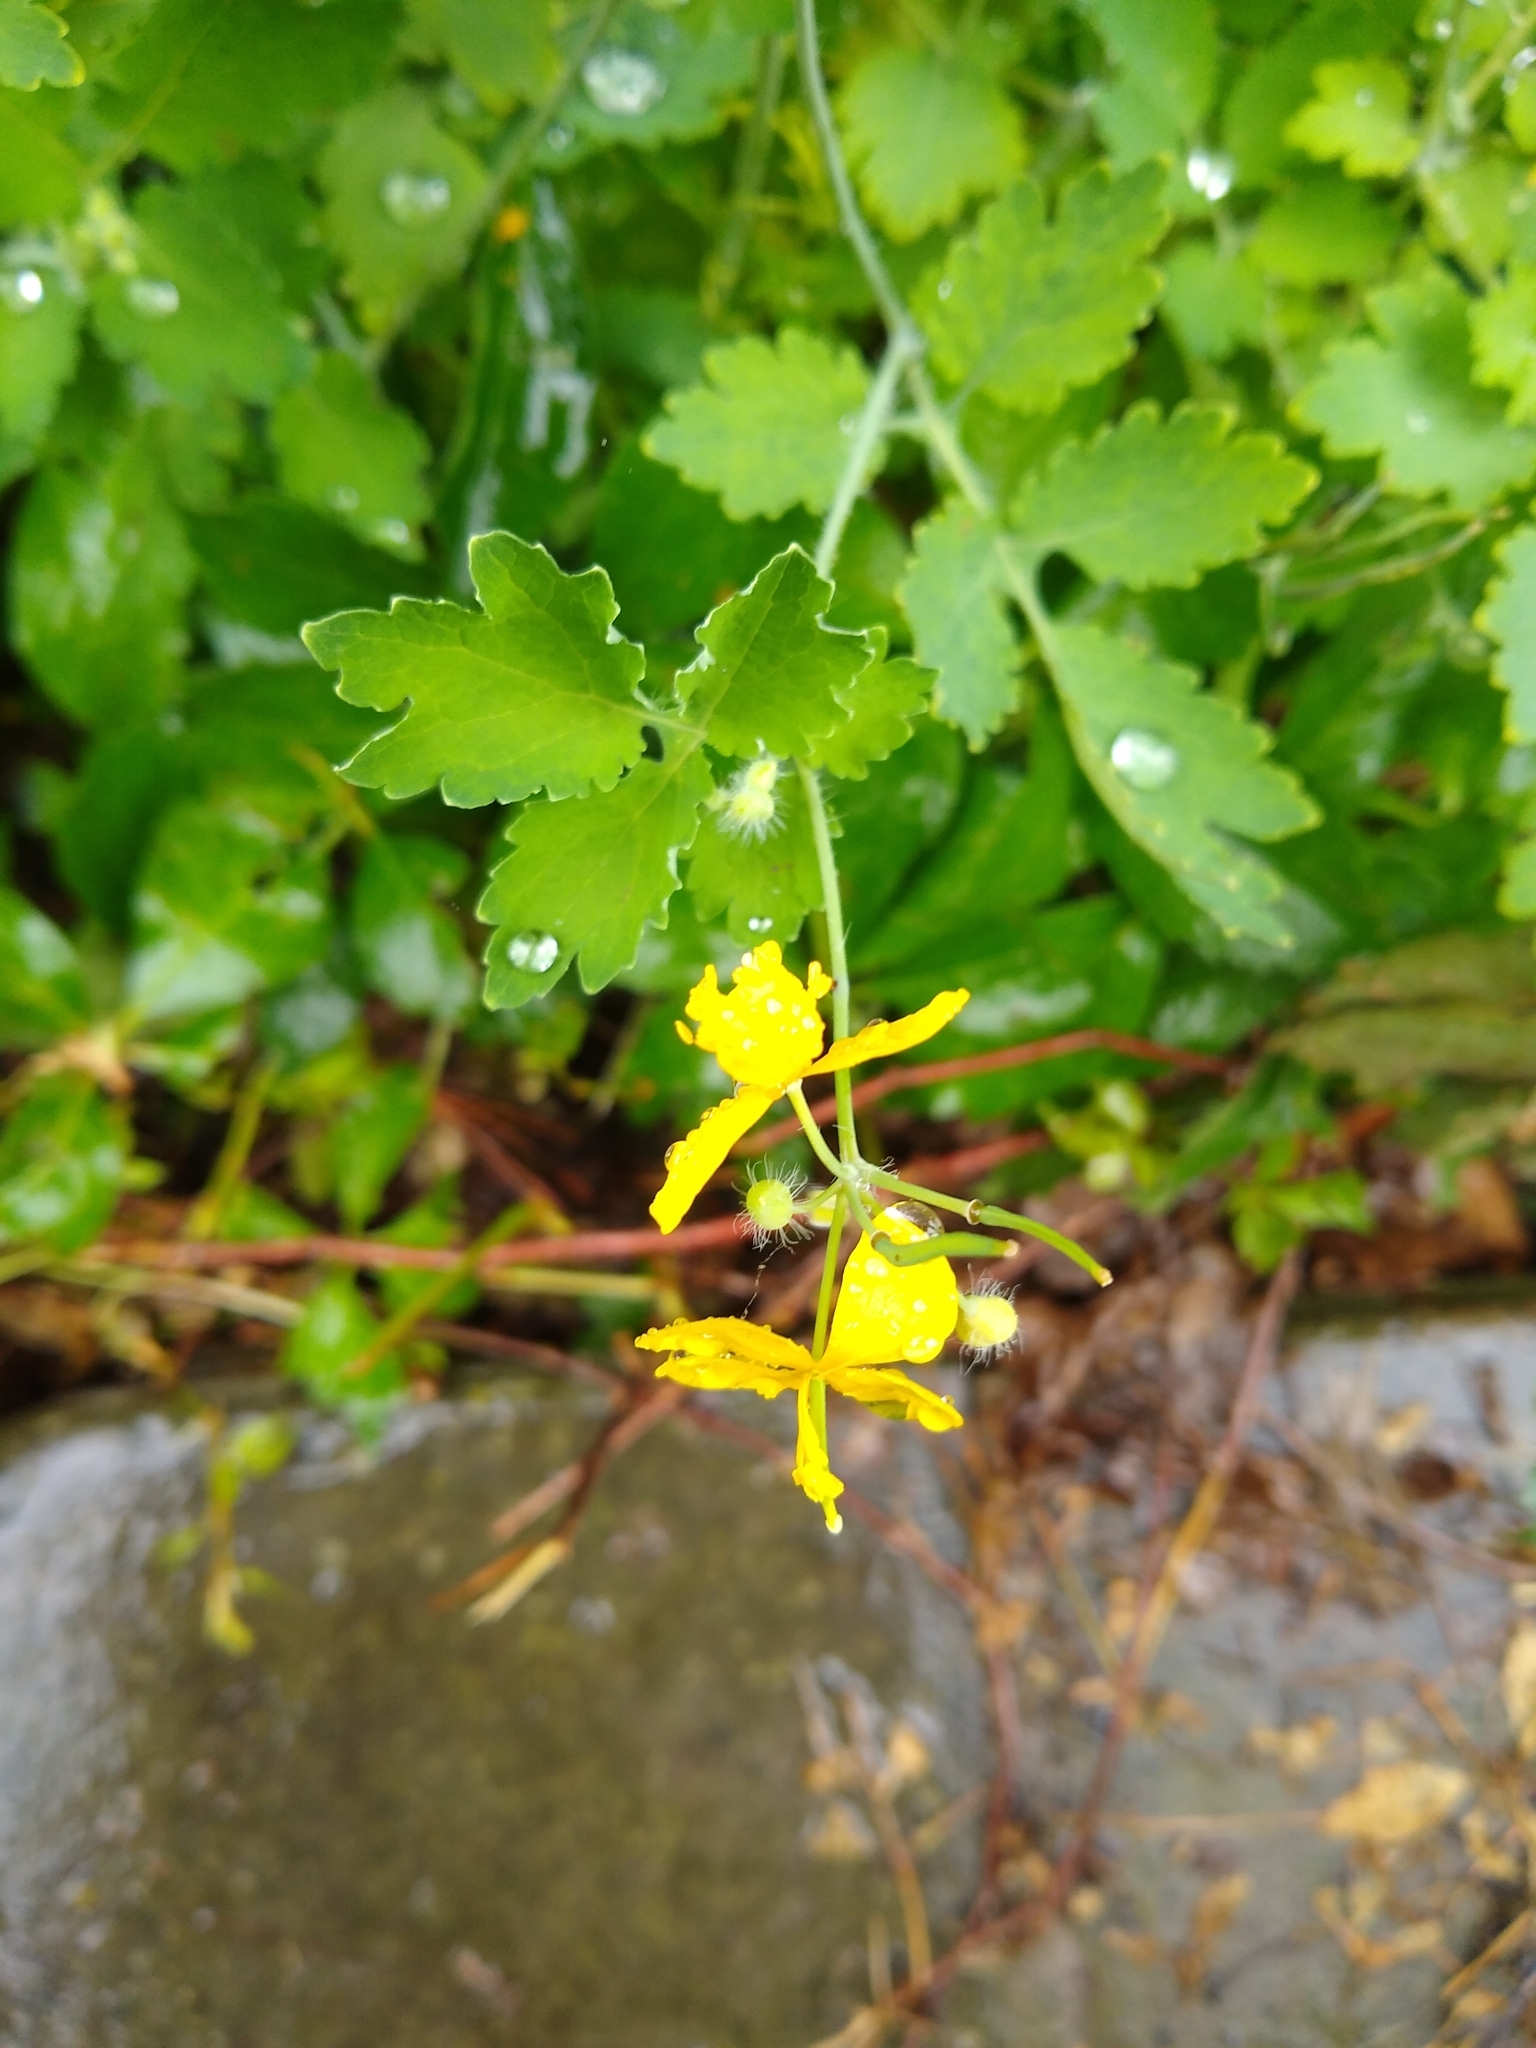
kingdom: Plantae
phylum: Tracheophyta
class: Magnoliopsida
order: Ranunculales
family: Papaveraceae
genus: Chelidonium
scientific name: Chelidonium majus
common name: Greater celandine
